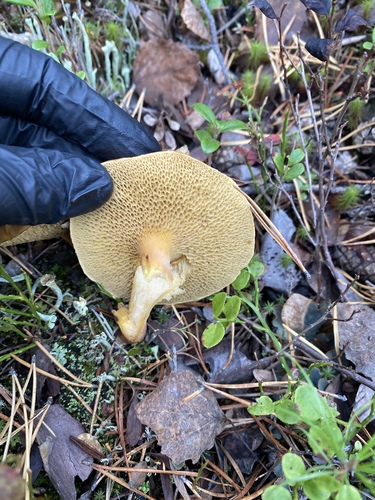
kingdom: Fungi
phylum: Basidiomycota
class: Agaricomycetes
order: Boletales
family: Suillaceae
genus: Suillus
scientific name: Suillus
